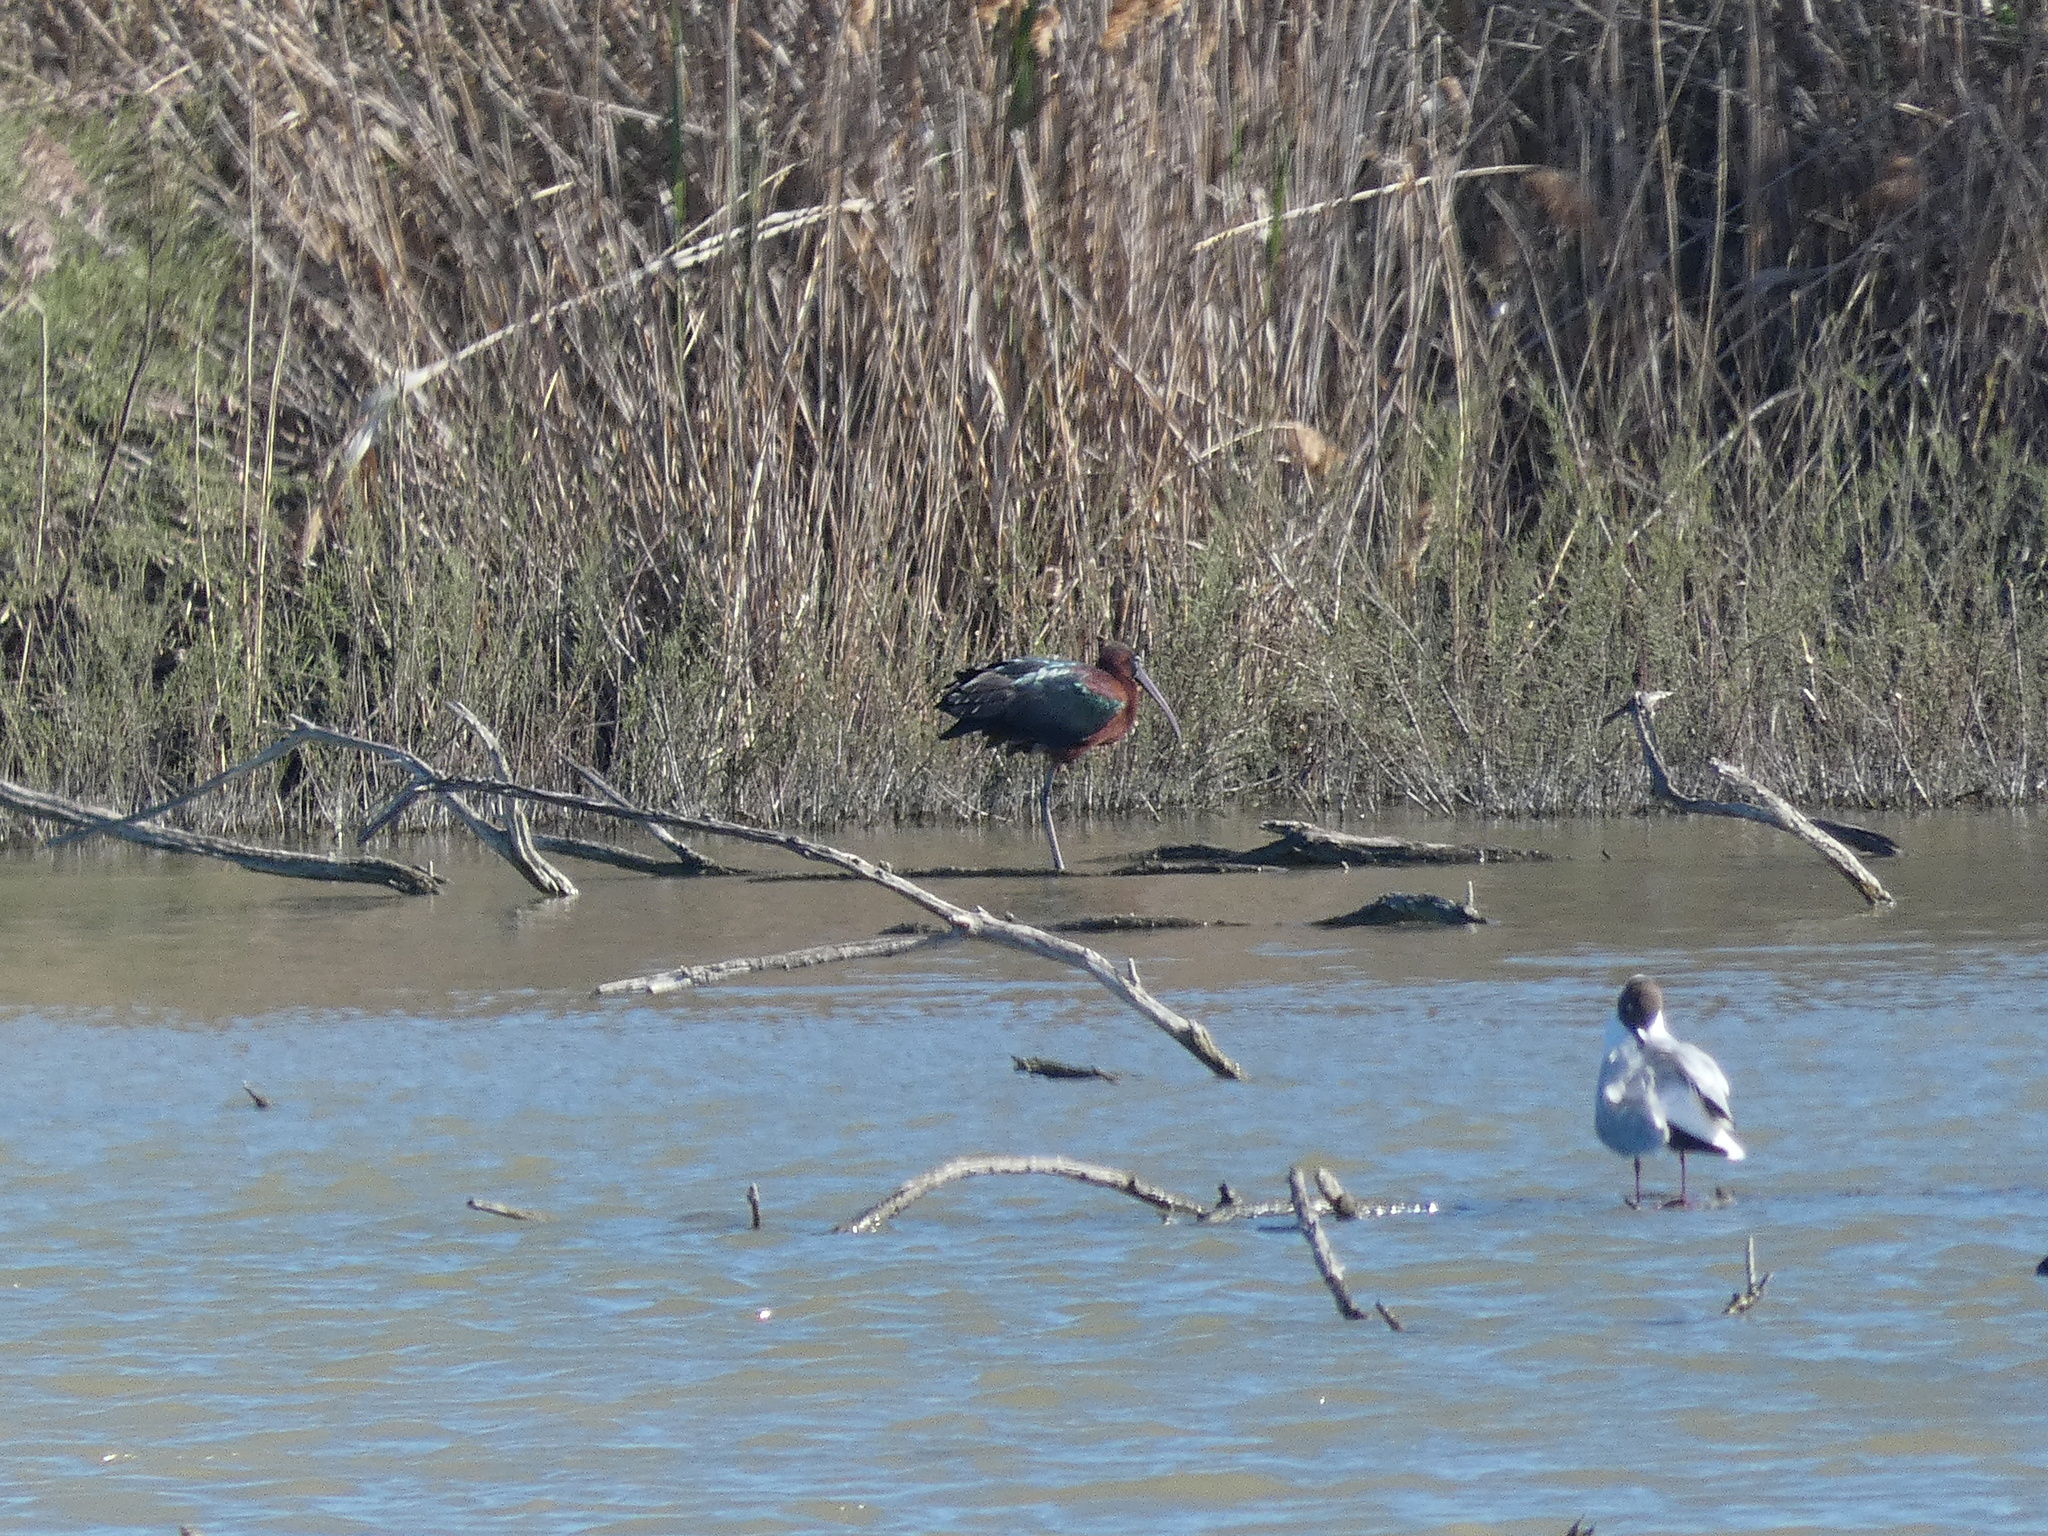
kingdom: Animalia
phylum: Chordata
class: Aves
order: Pelecaniformes
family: Threskiornithidae
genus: Plegadis
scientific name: Plegadis falcinellus
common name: Glossy ibis
